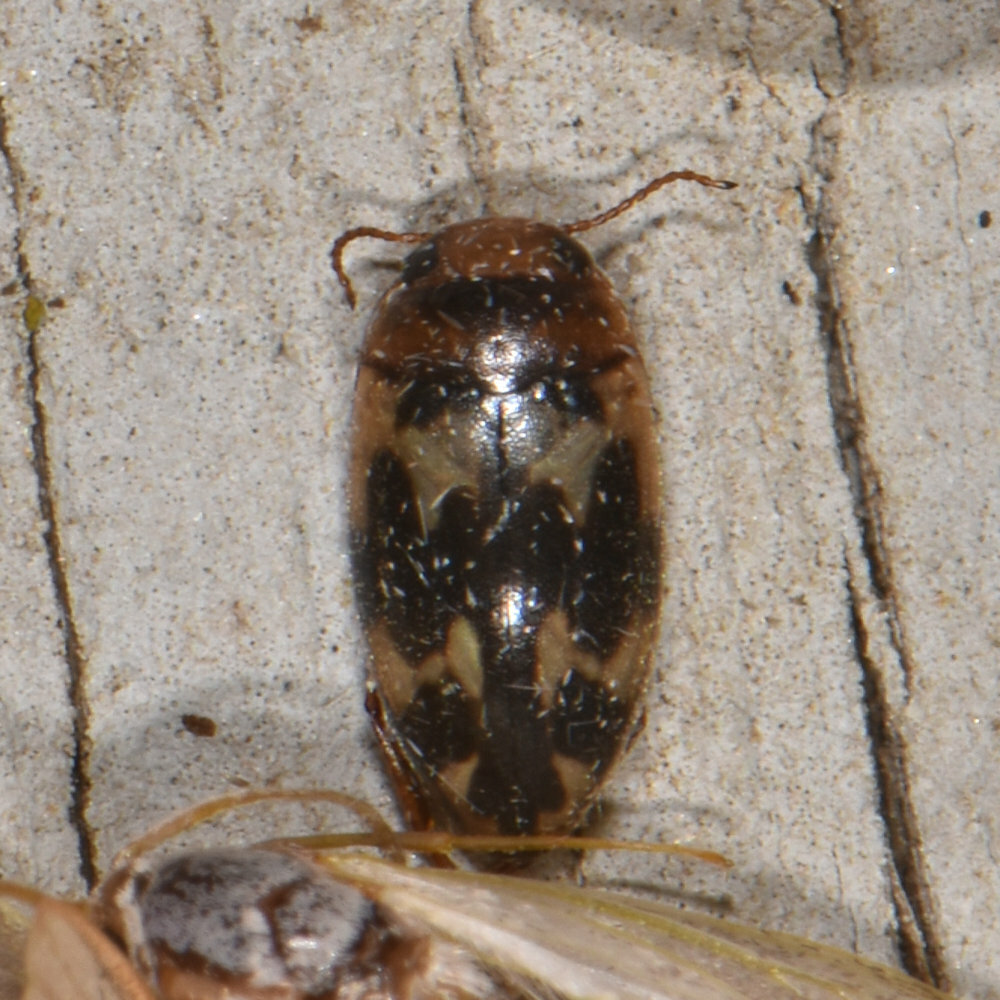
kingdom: Animalia
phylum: Arthropoda
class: Insecta
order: Coleoptera
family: Dytiscidae
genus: Heterosternuta
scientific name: Heterosternuta
